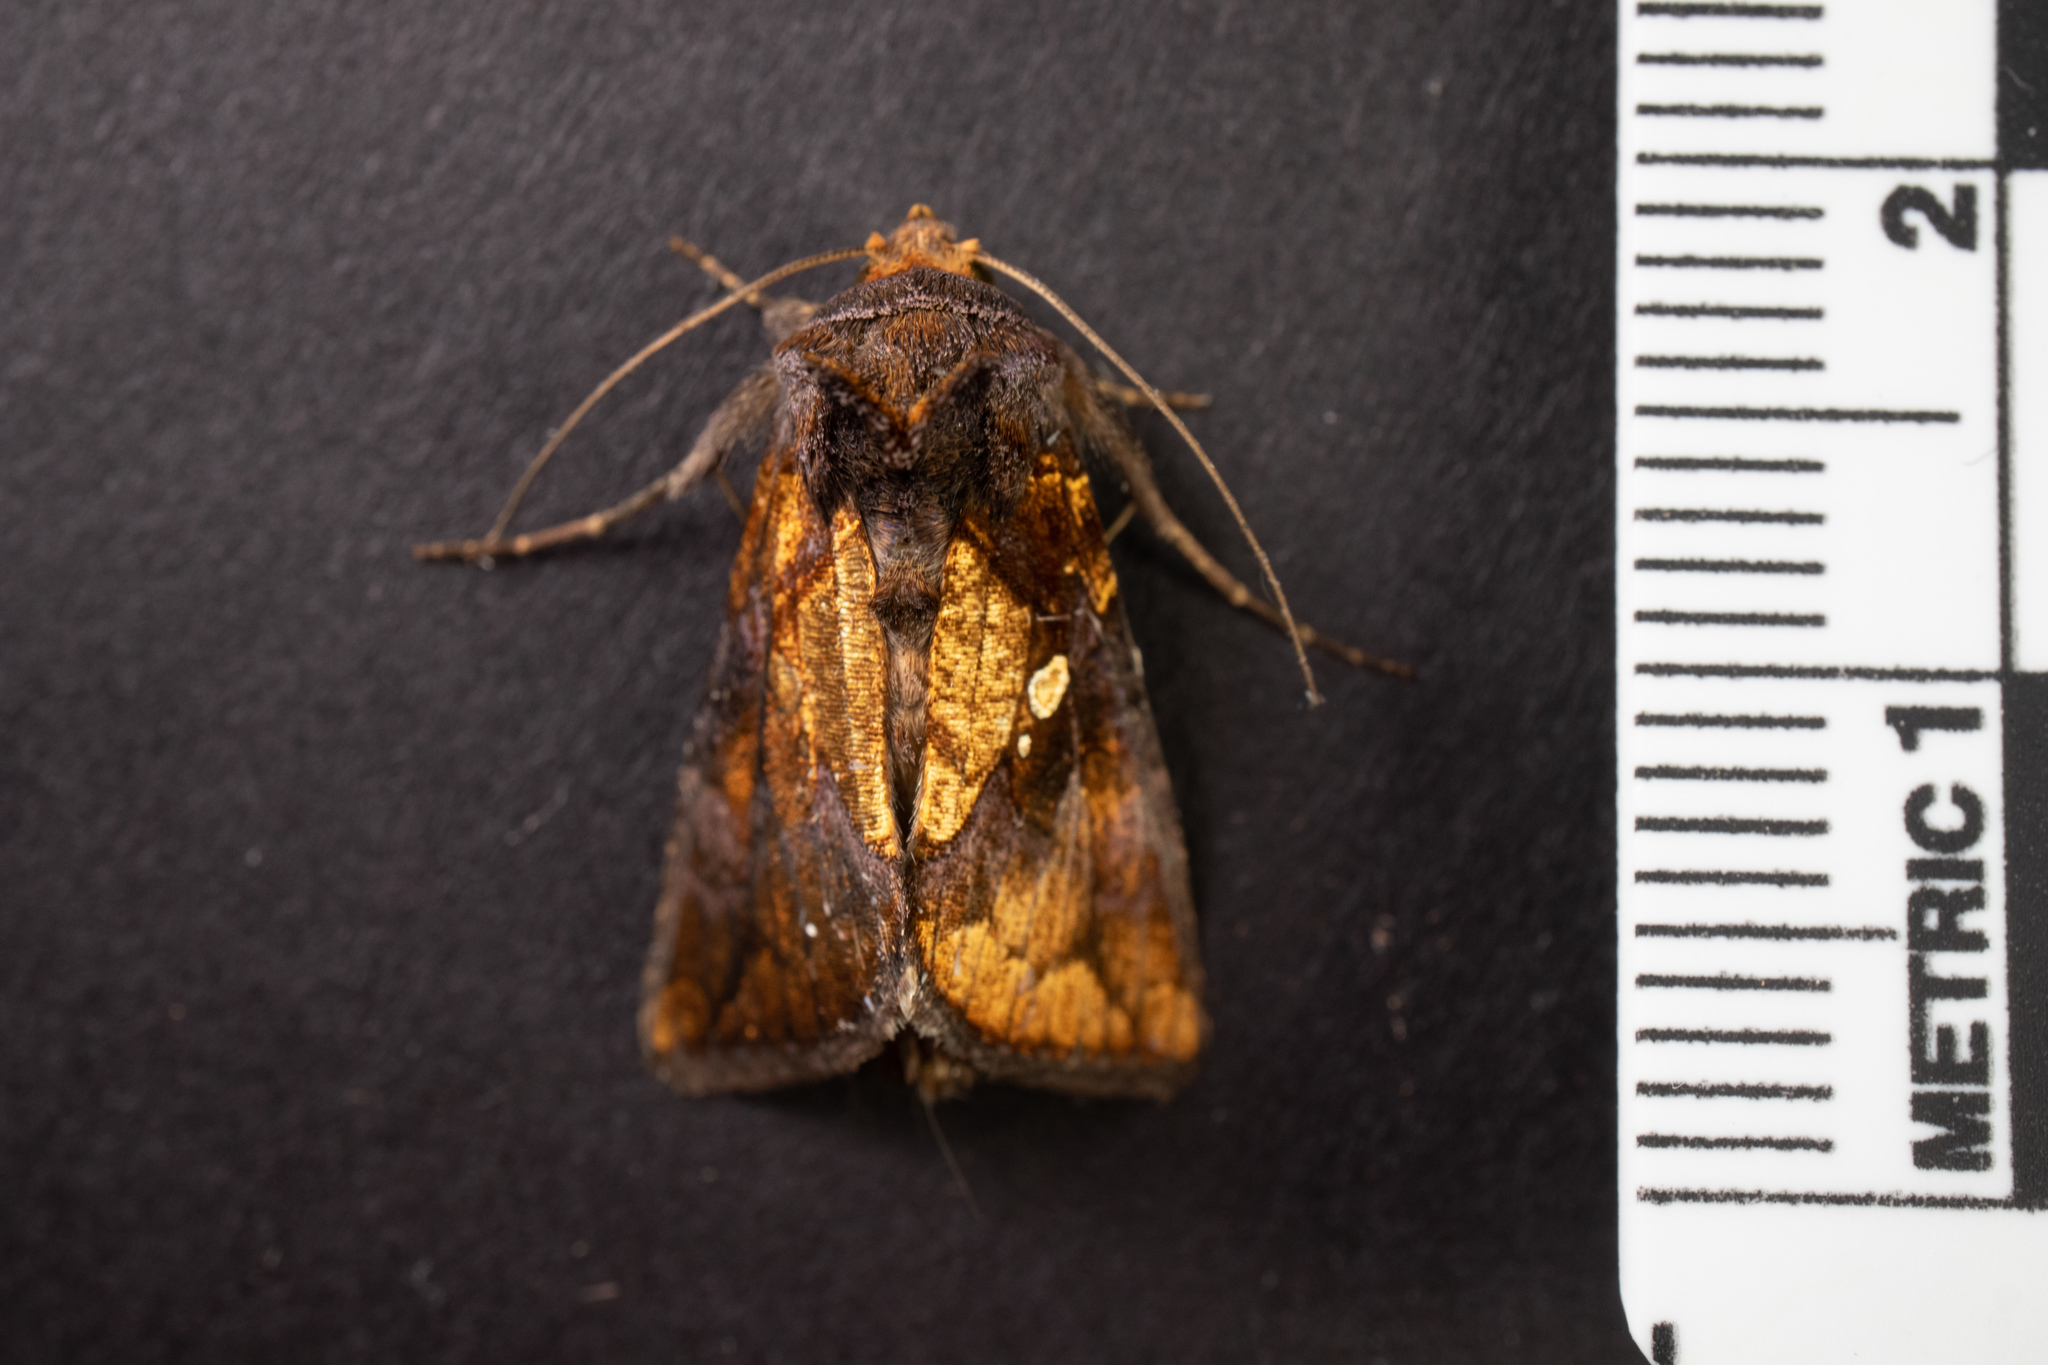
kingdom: Animalia
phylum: Arthropoda
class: Insecta
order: Lepidoptera
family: Noctuidae
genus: Argyrogramma
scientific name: Argyrogramma verruca
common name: Golden looper moth
